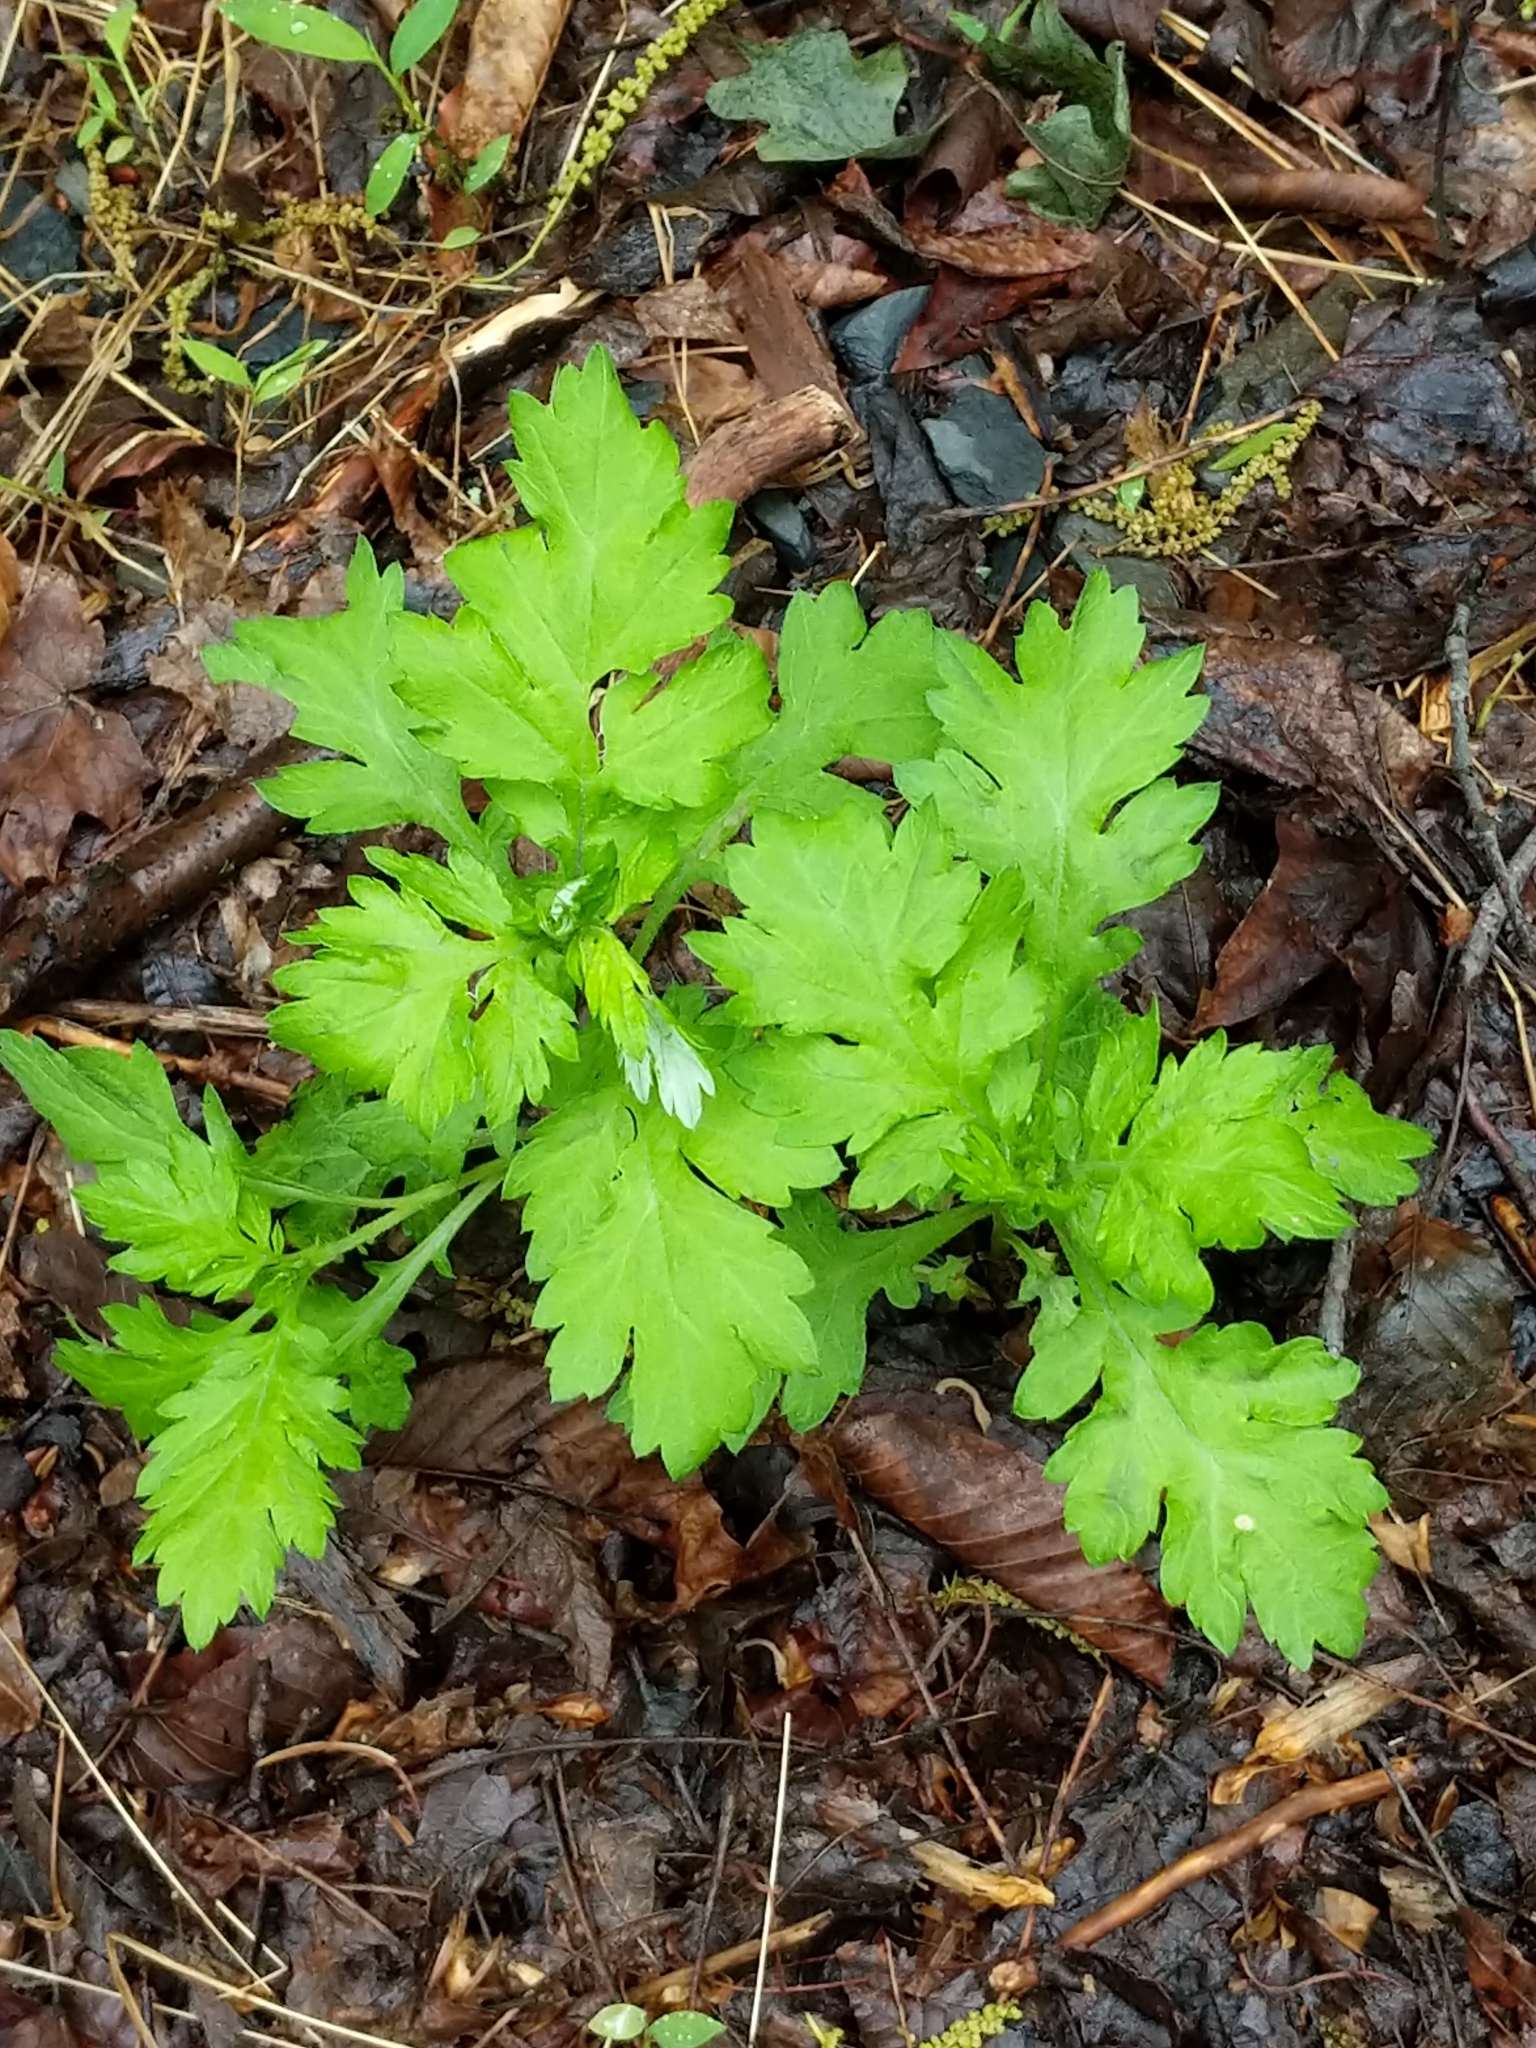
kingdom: Plantae
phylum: Tracheophyta
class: Magnoliopsida
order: Asterales
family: Asteraceae
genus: Artemisia
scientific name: Artemisia vulgaris
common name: Mugwort
